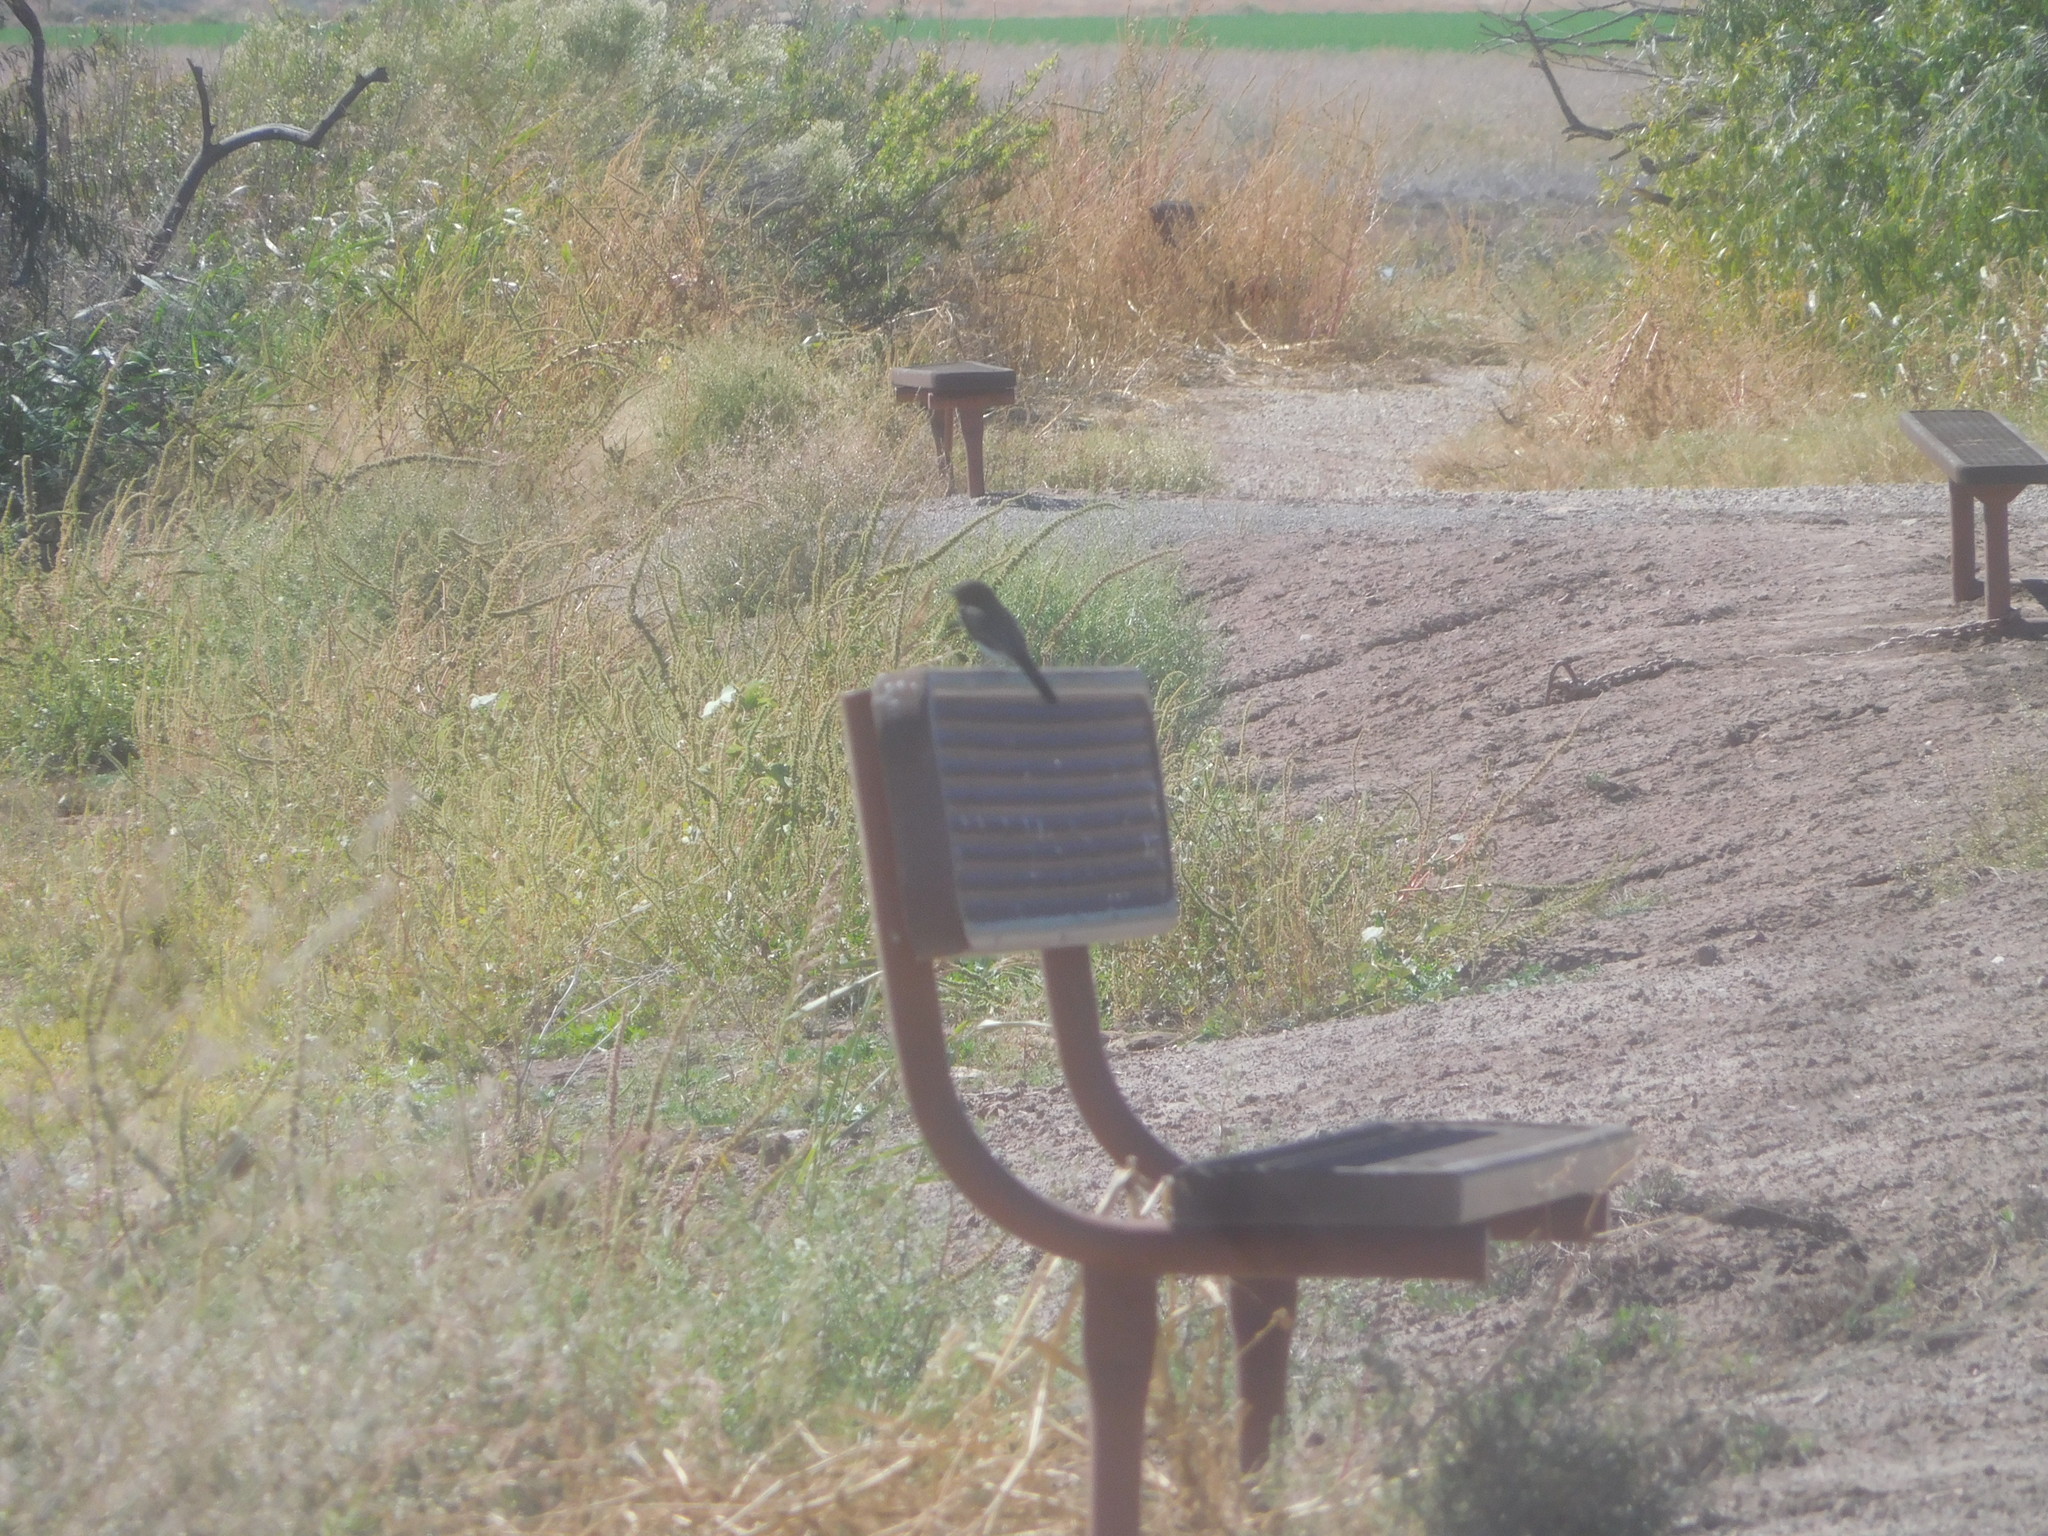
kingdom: Animalia
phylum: Chordata
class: Aves
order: Passeriformes
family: Tyrannidae
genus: Sayornis
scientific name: Sayornis nigricans
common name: Black phoebe
